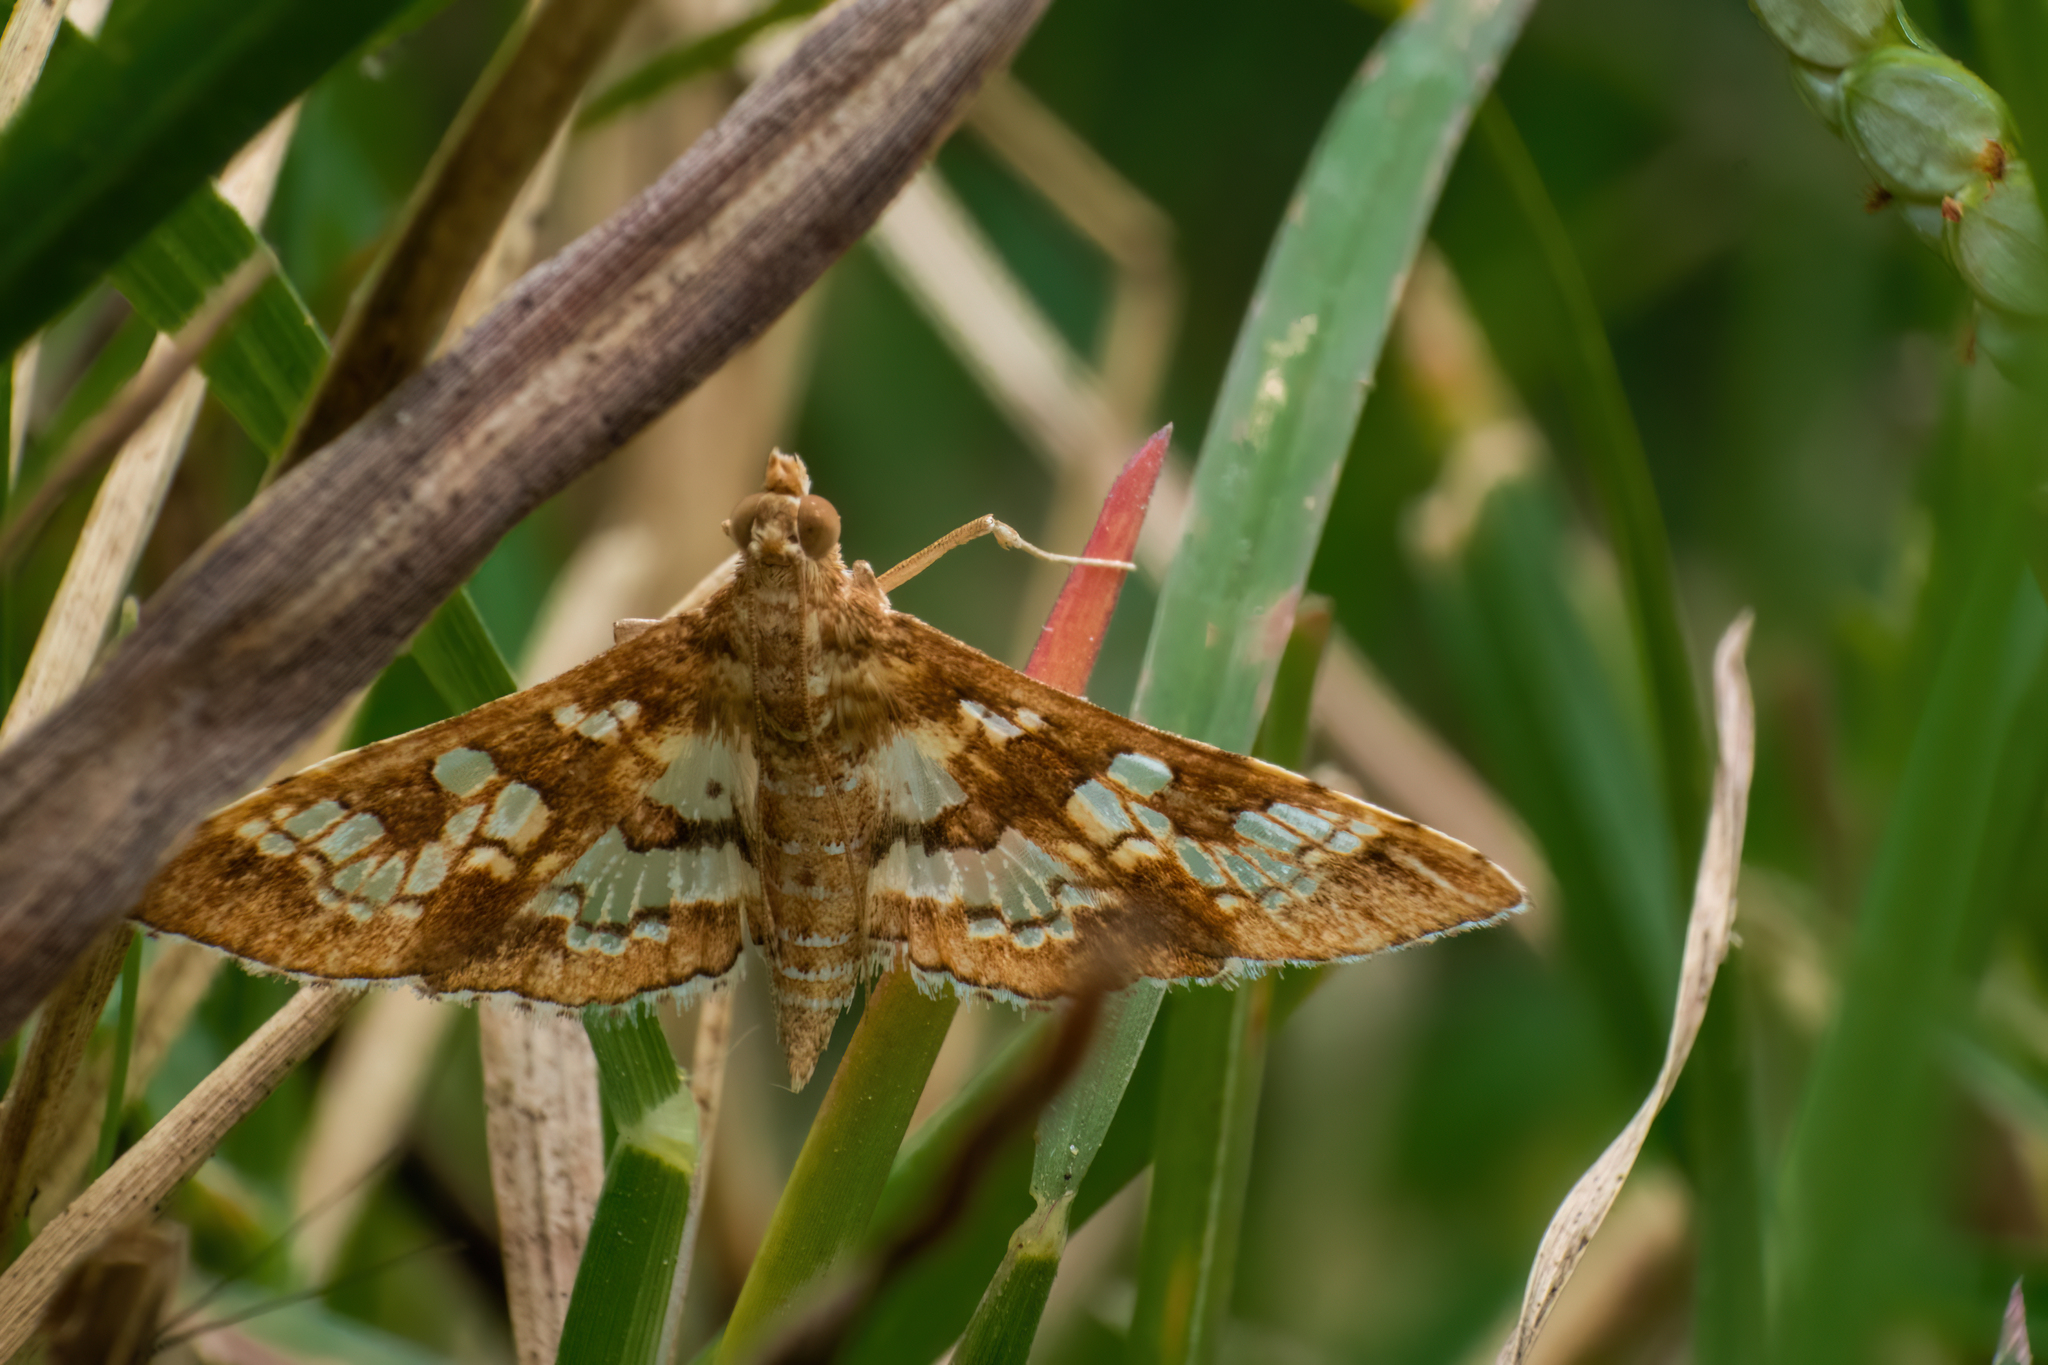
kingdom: Animalia
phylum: Arthropoda
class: Insecta
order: Lepidoptera
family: Crambidae
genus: Sameodes
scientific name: Sameodes cancellalis
